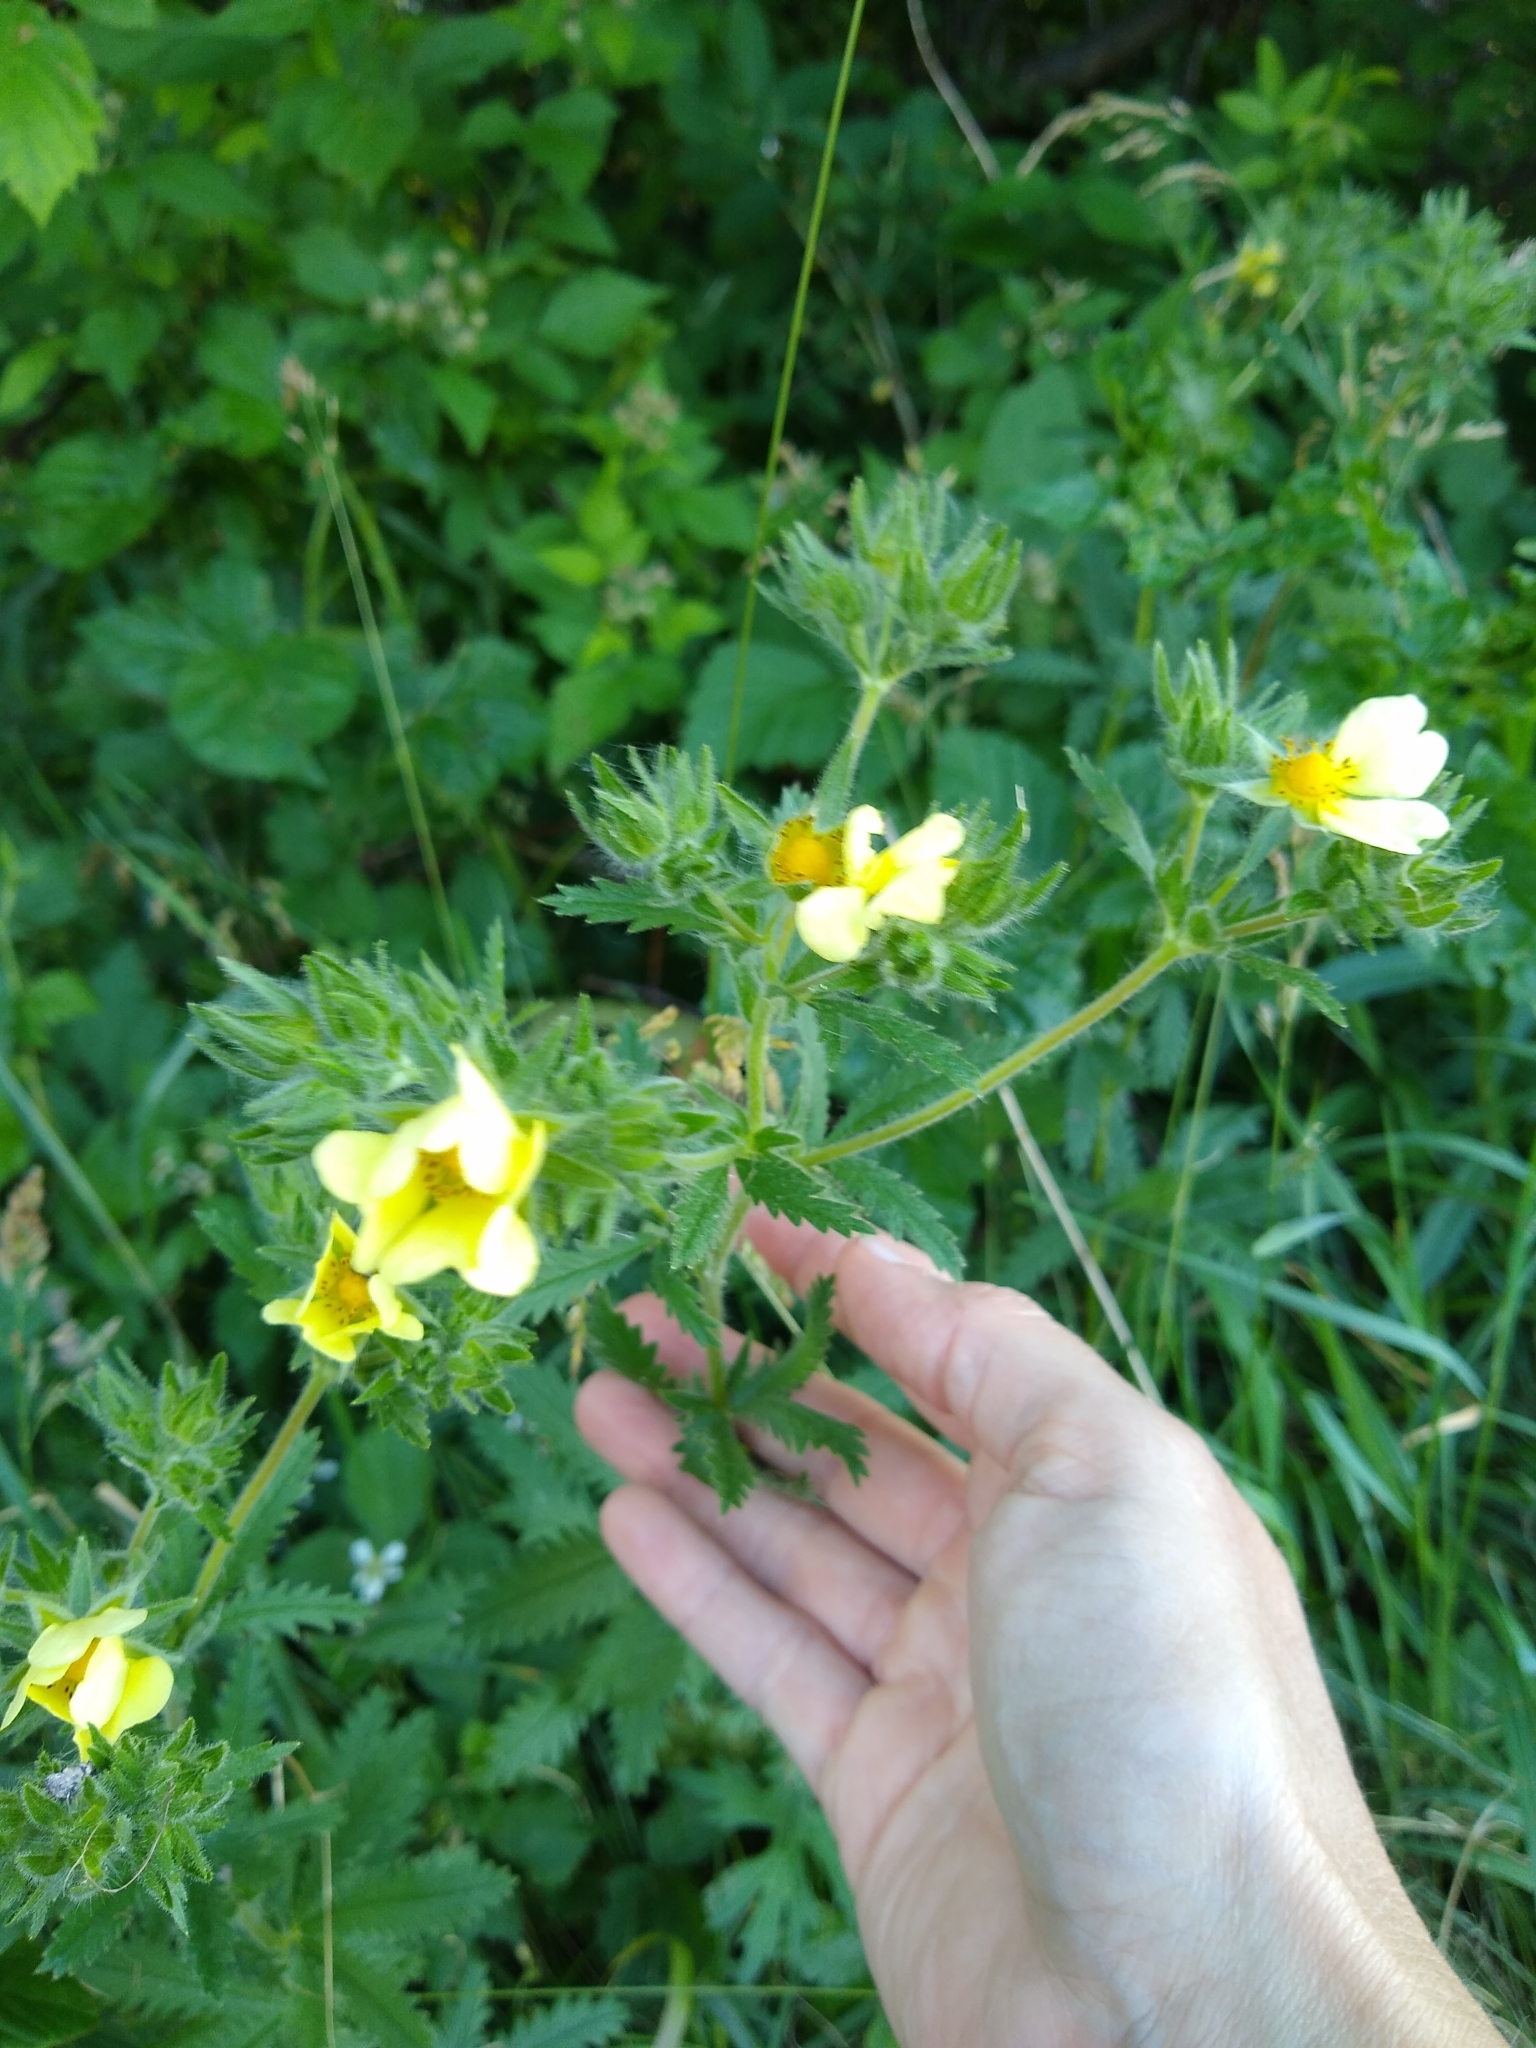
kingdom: Plantae
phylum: Tracheophyta
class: Magnoliopsida
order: Rosales
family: Rosaceae
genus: Potentilla
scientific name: Potentilla recta
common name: Sulphur cinquefoil
